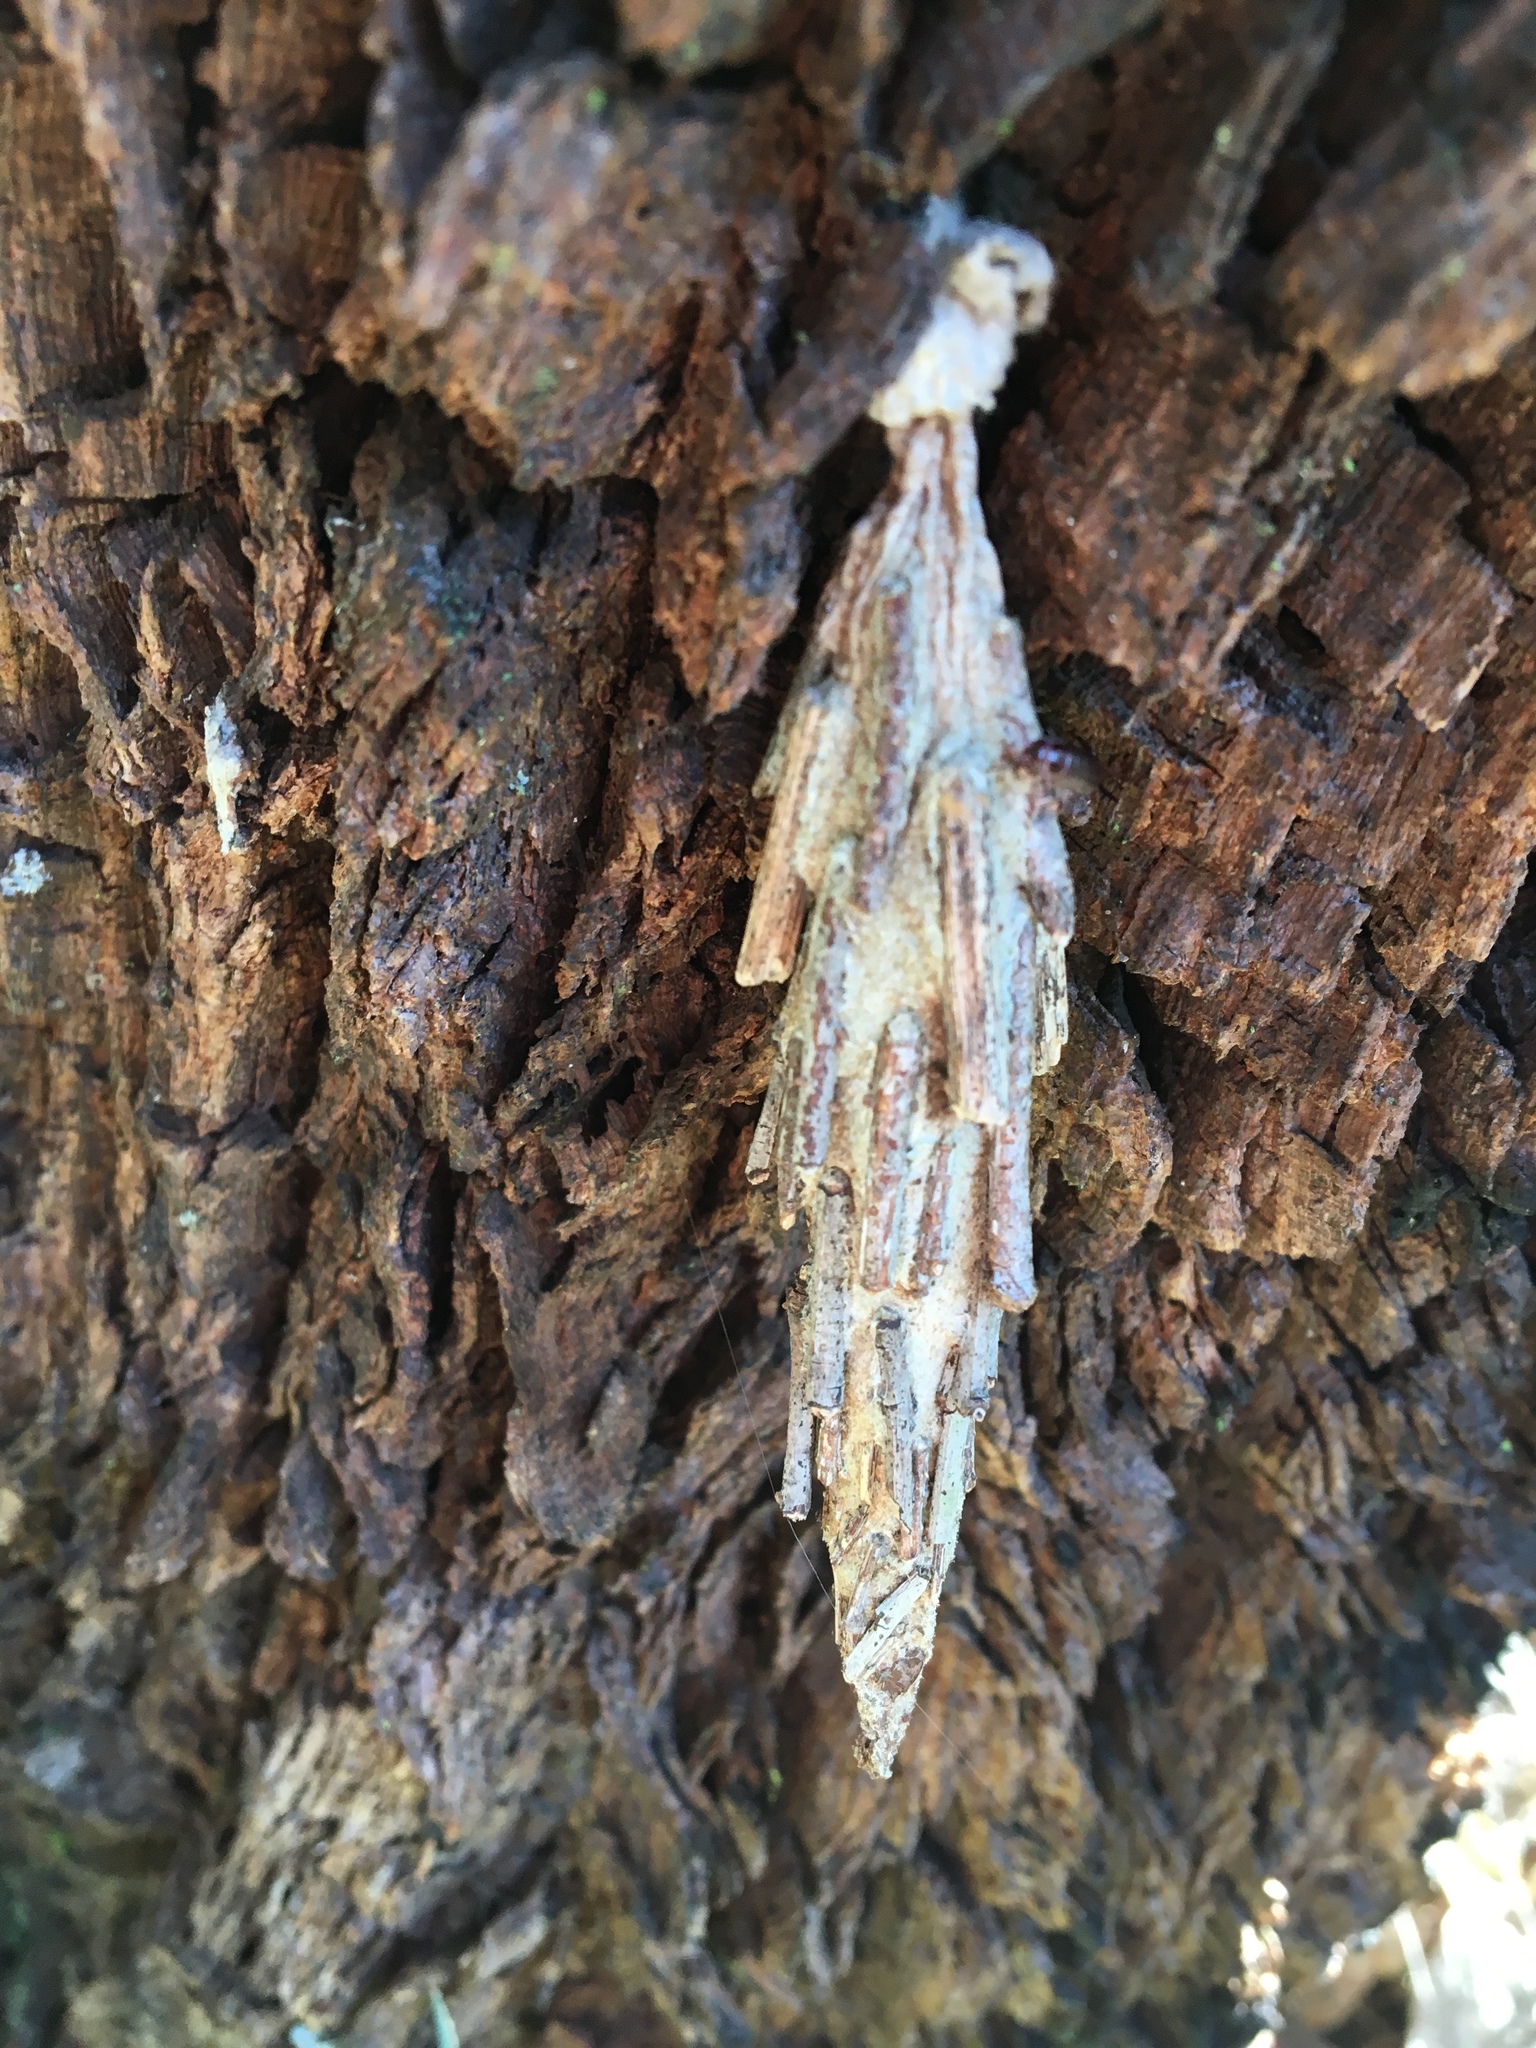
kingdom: Animalia
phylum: Arthropoda
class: Insecta
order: Lepidoptera
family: Psychidae
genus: Metura
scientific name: Metura elongatus
